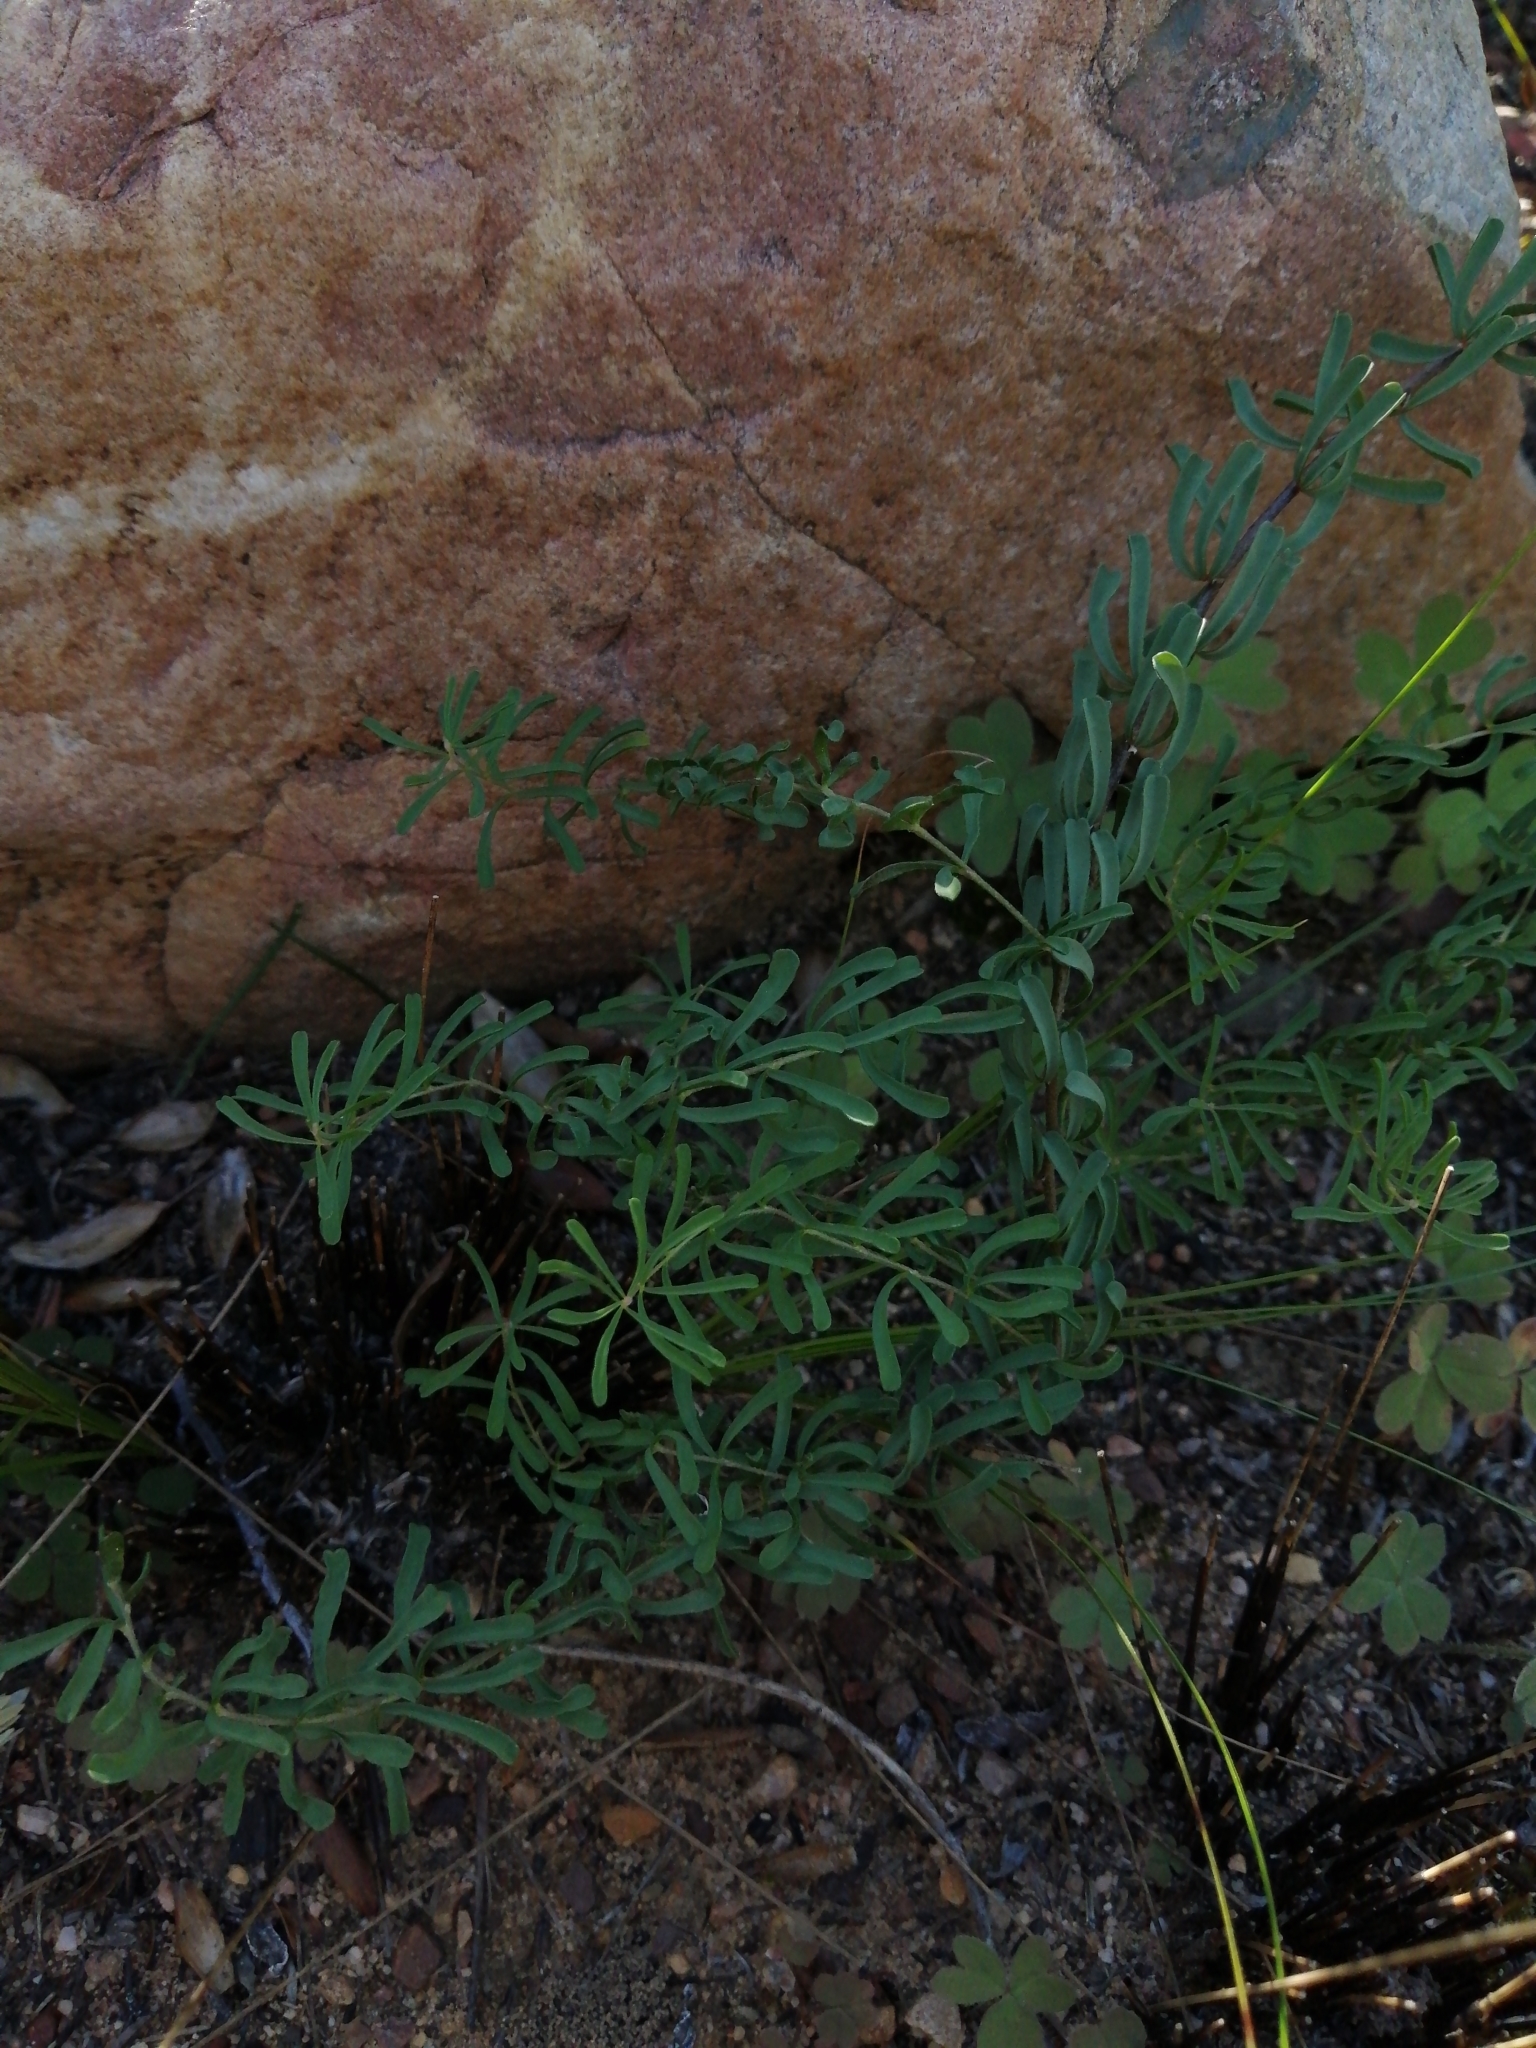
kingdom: Plantae
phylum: Tracheophyta
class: Magnoliopsida
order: Oxalidales
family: Oxalidaceae
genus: Oxalis
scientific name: Oxalis hirta
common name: Tropical woodsorrel
